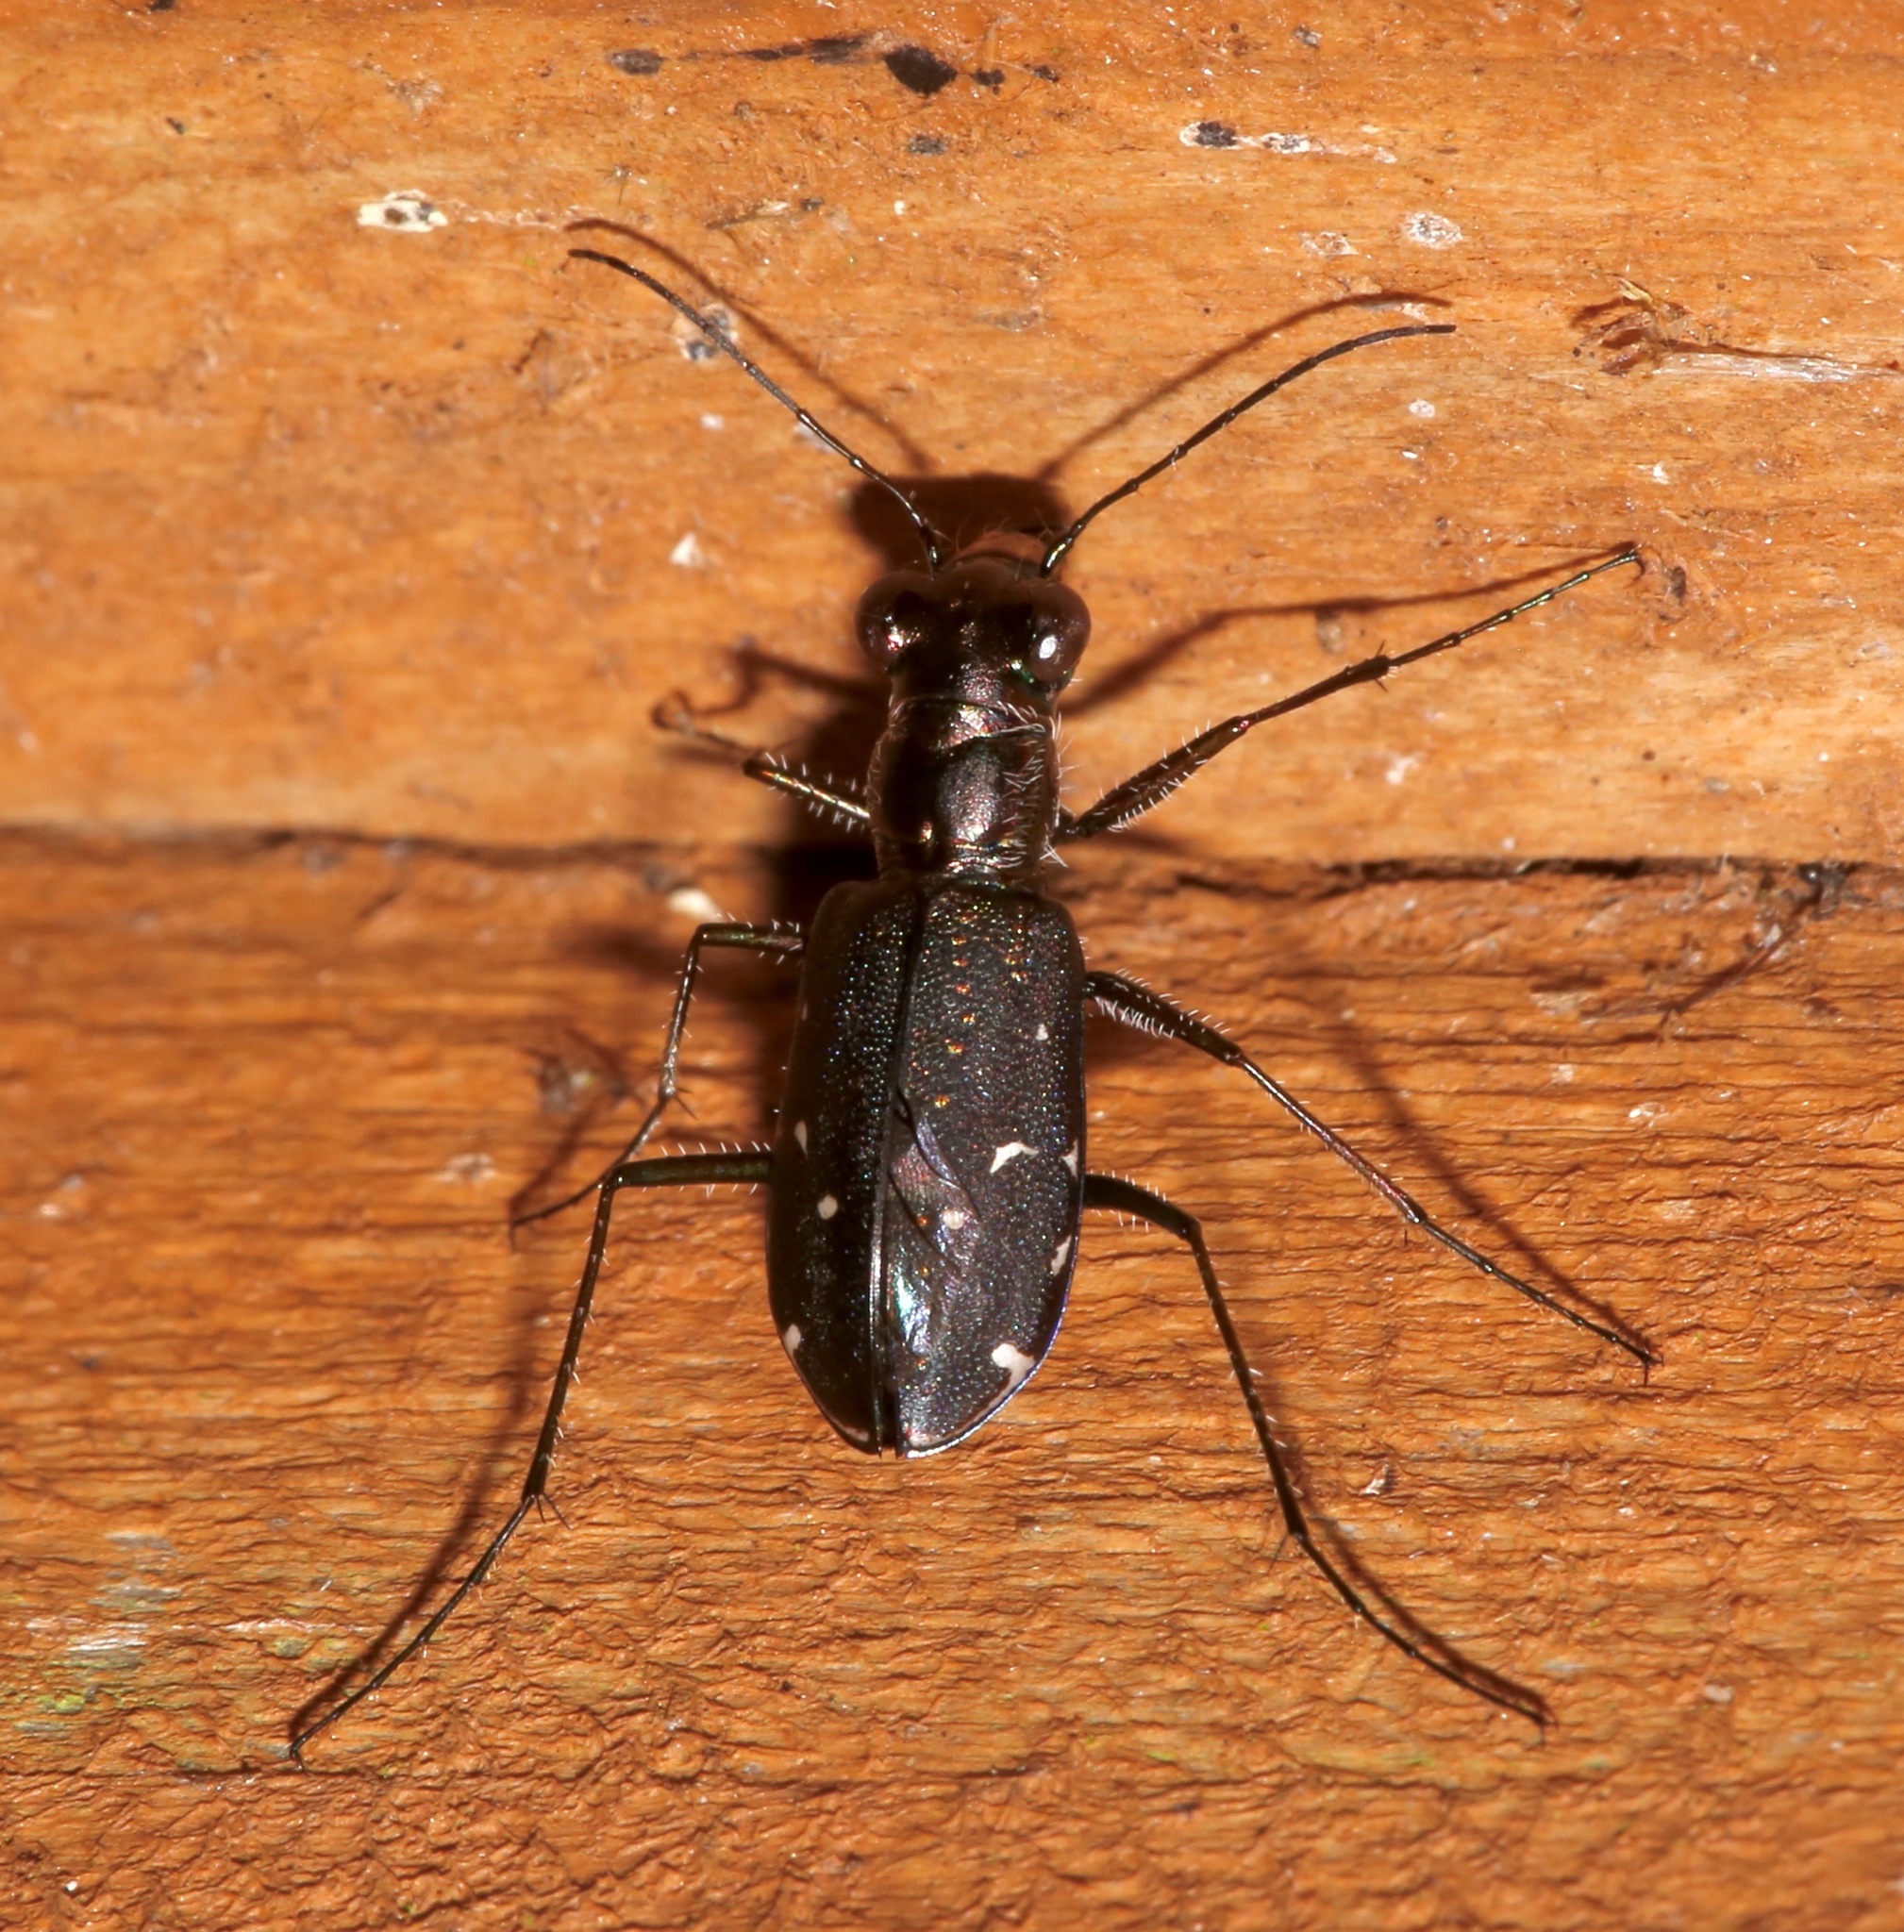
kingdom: Animalia
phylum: Arthropoda
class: Insecta
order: Coleoptera
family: Carabidae
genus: Cicindela
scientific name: Cicindela punctulata
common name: Punctured tiger beetle
